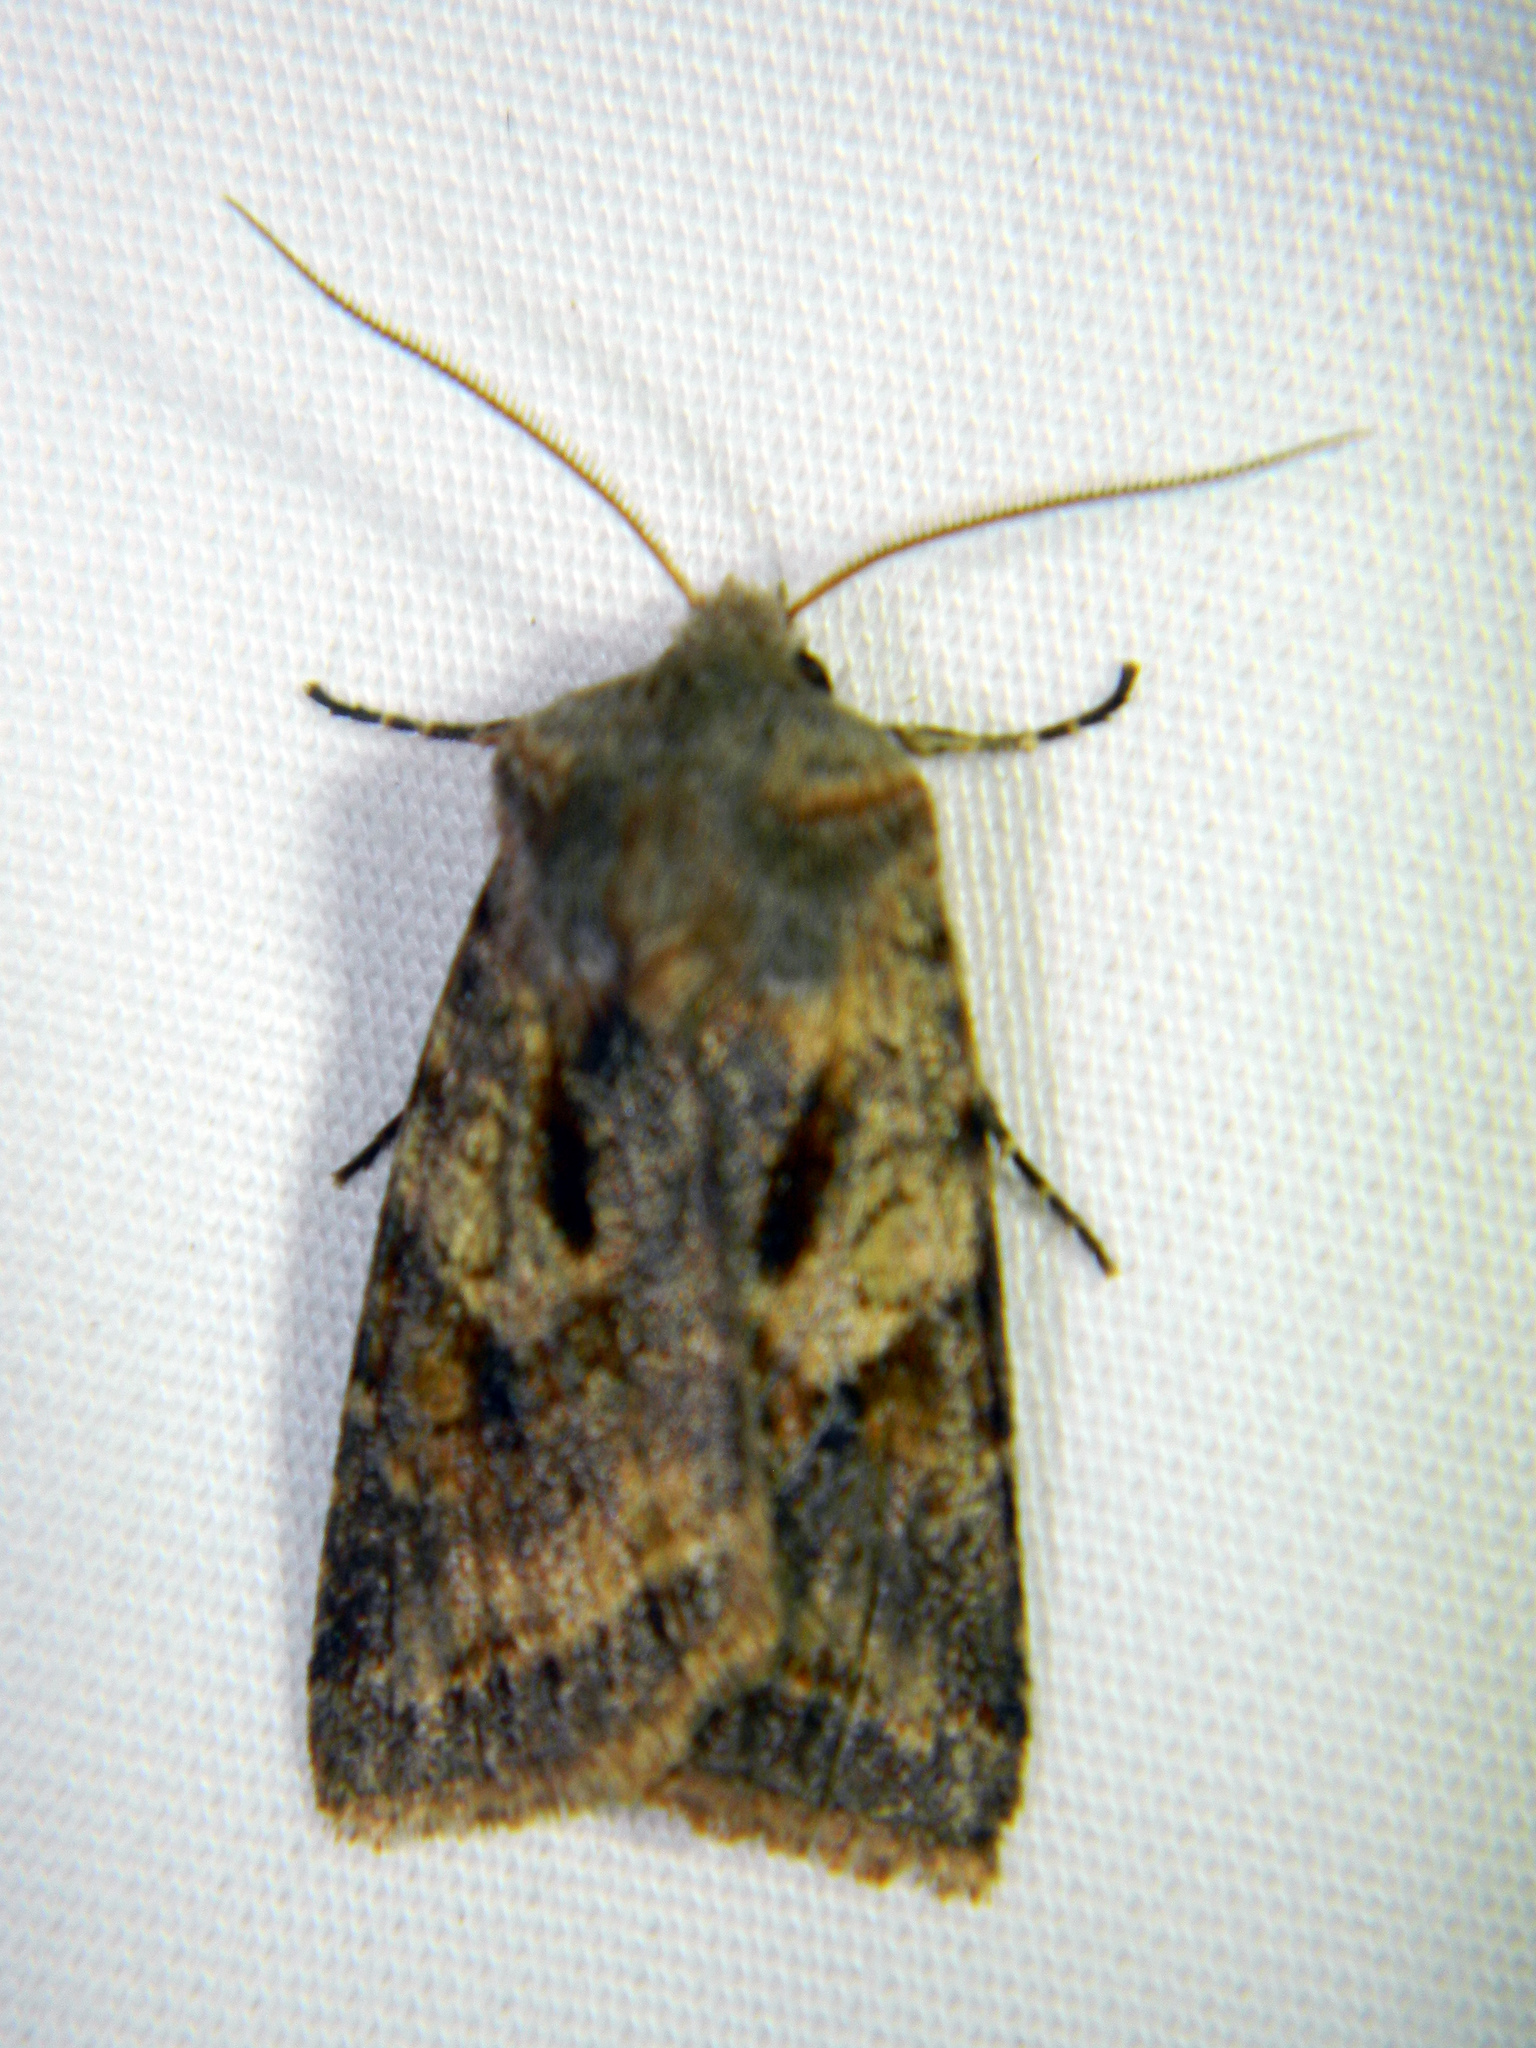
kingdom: Animalia
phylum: Arthropoda
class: Insecta
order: Lepidoptera
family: Noctuidae
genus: Cerastis
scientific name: Cerastis salicarum
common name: Willow dart
